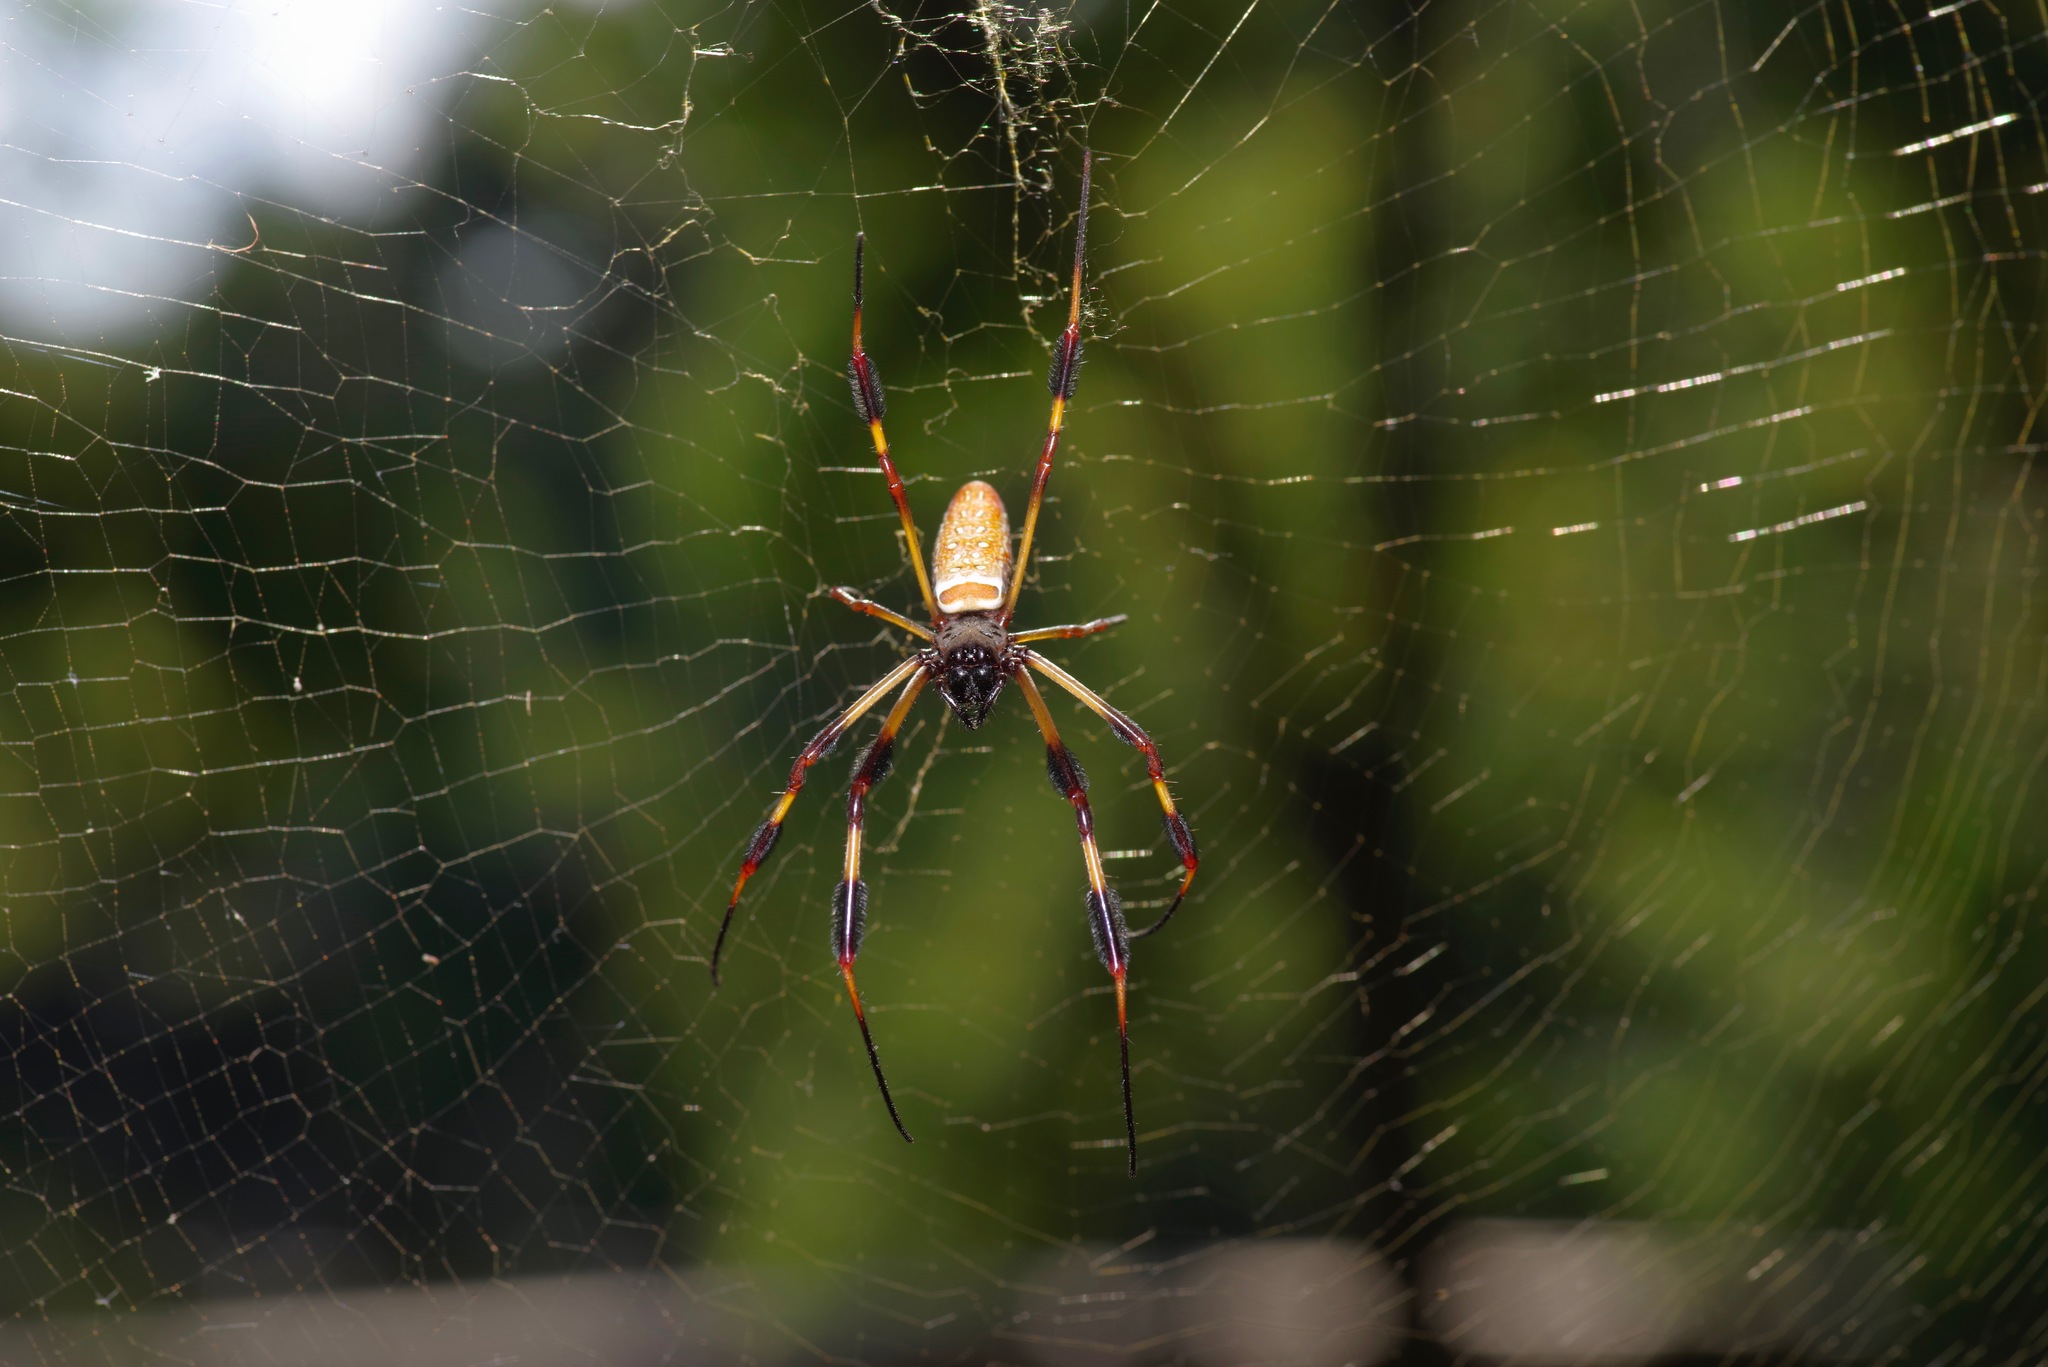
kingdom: Animalia
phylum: Arthropoda
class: Arachnida
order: Araneae
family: Araneidae
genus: Trichonephila
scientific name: Trichonephila clavipes
